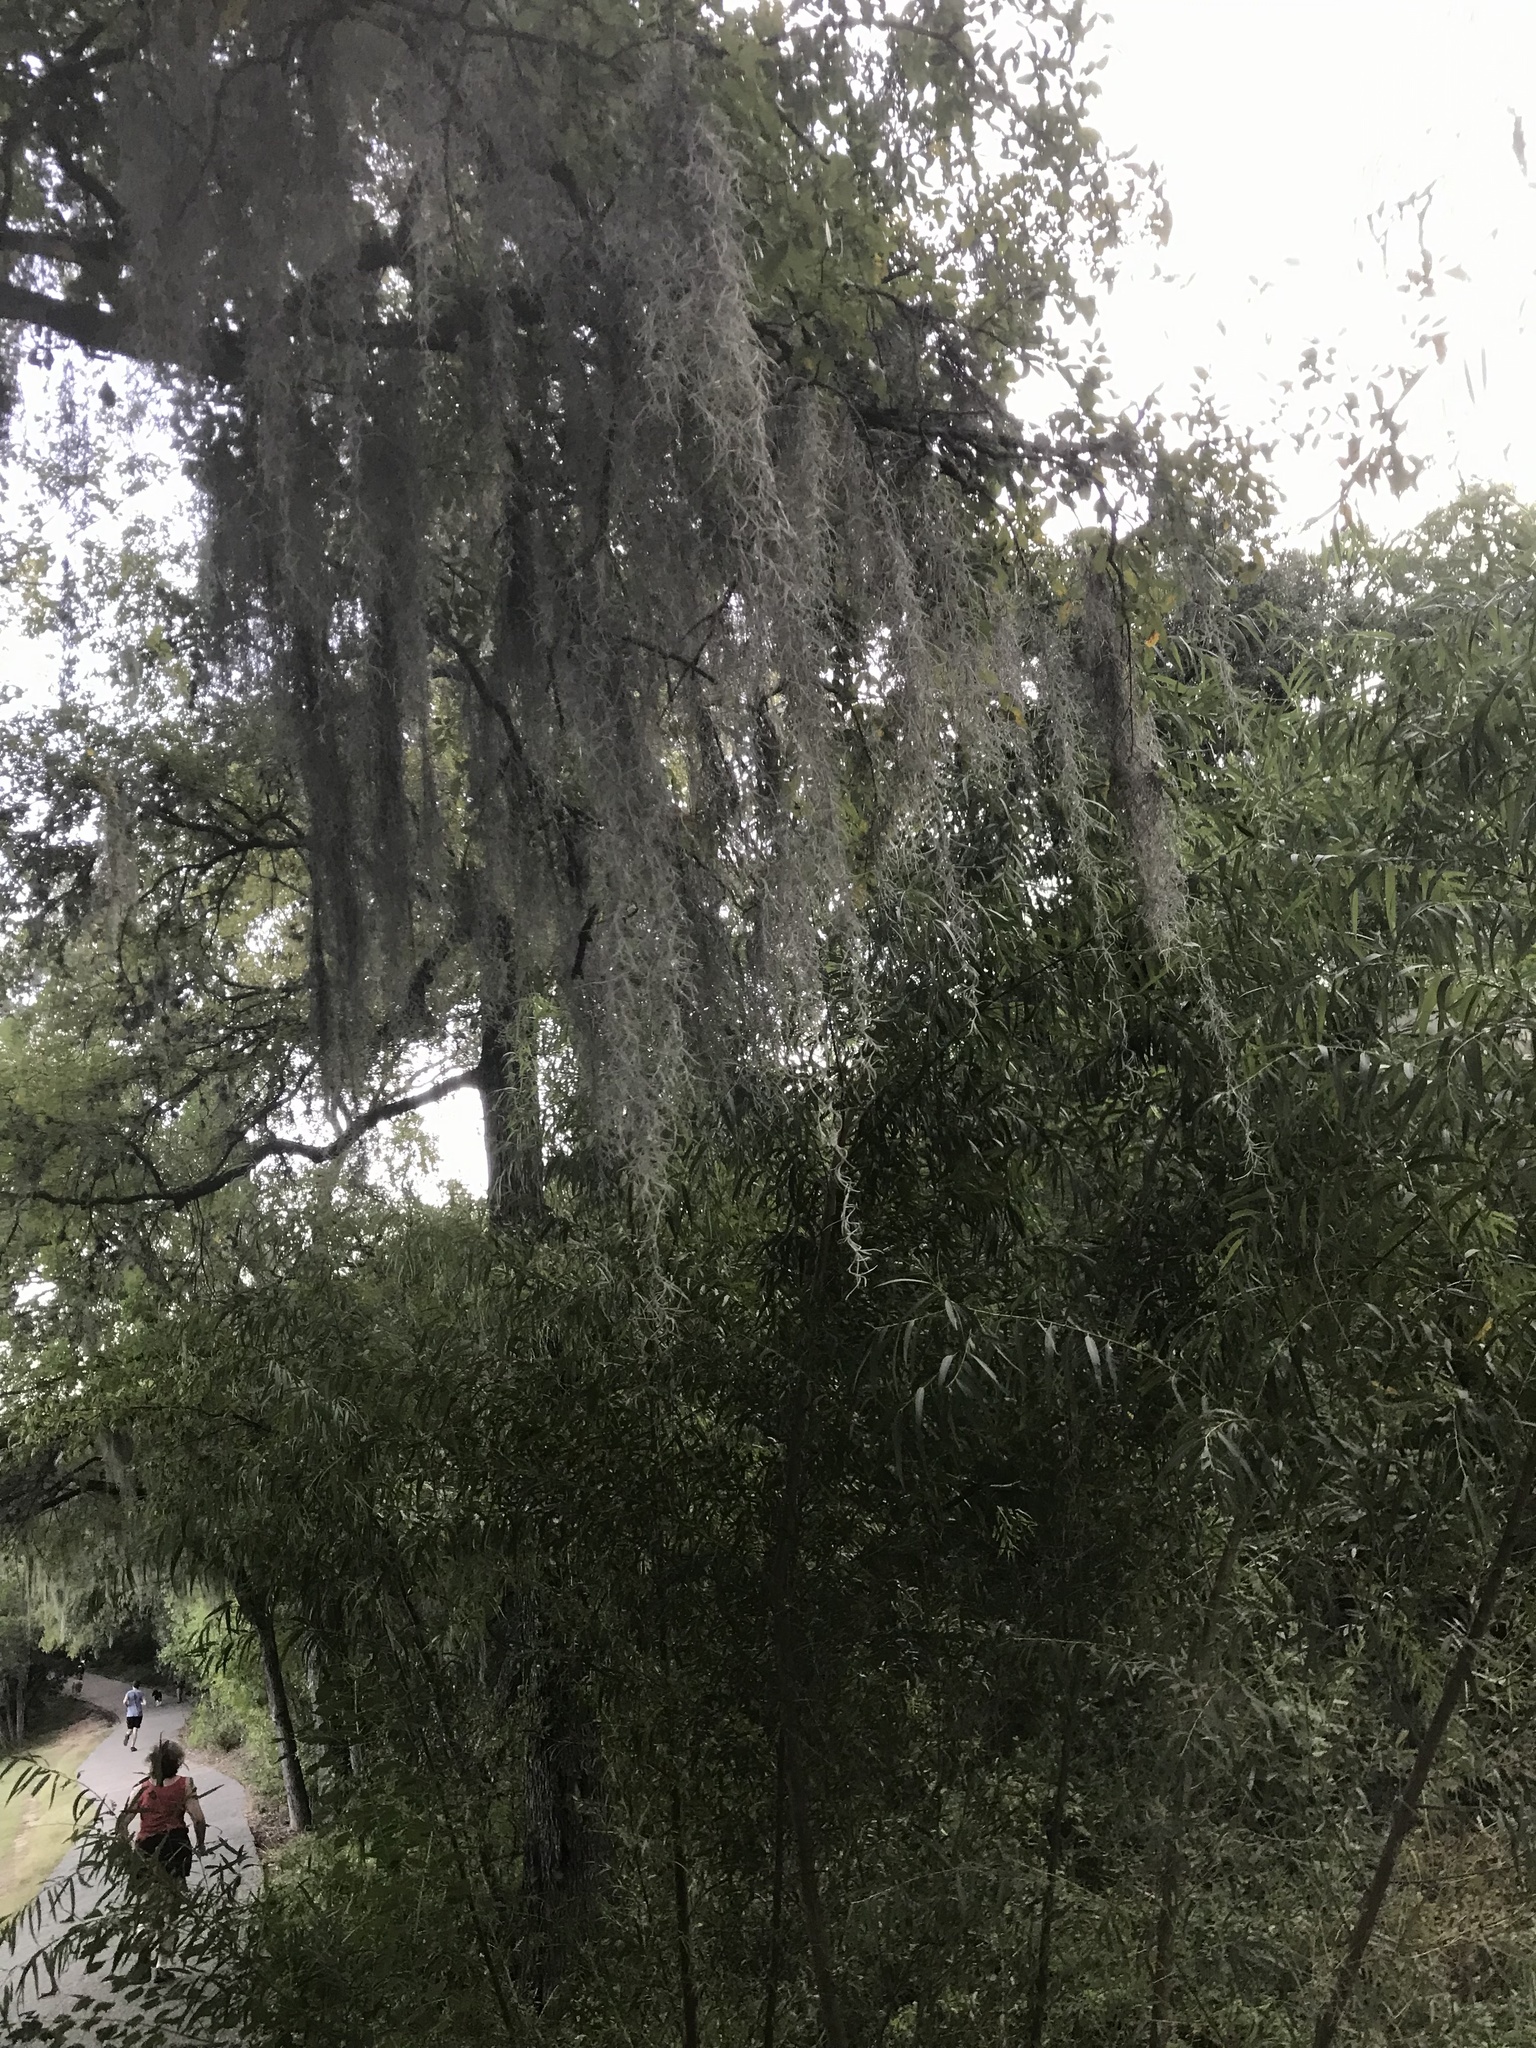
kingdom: Plantae
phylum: Tracheophyta
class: Liliopsida
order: Poales
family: Bromeliaceae
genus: Tillandsia
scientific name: Tillandsia usneoides
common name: Spanish moss
